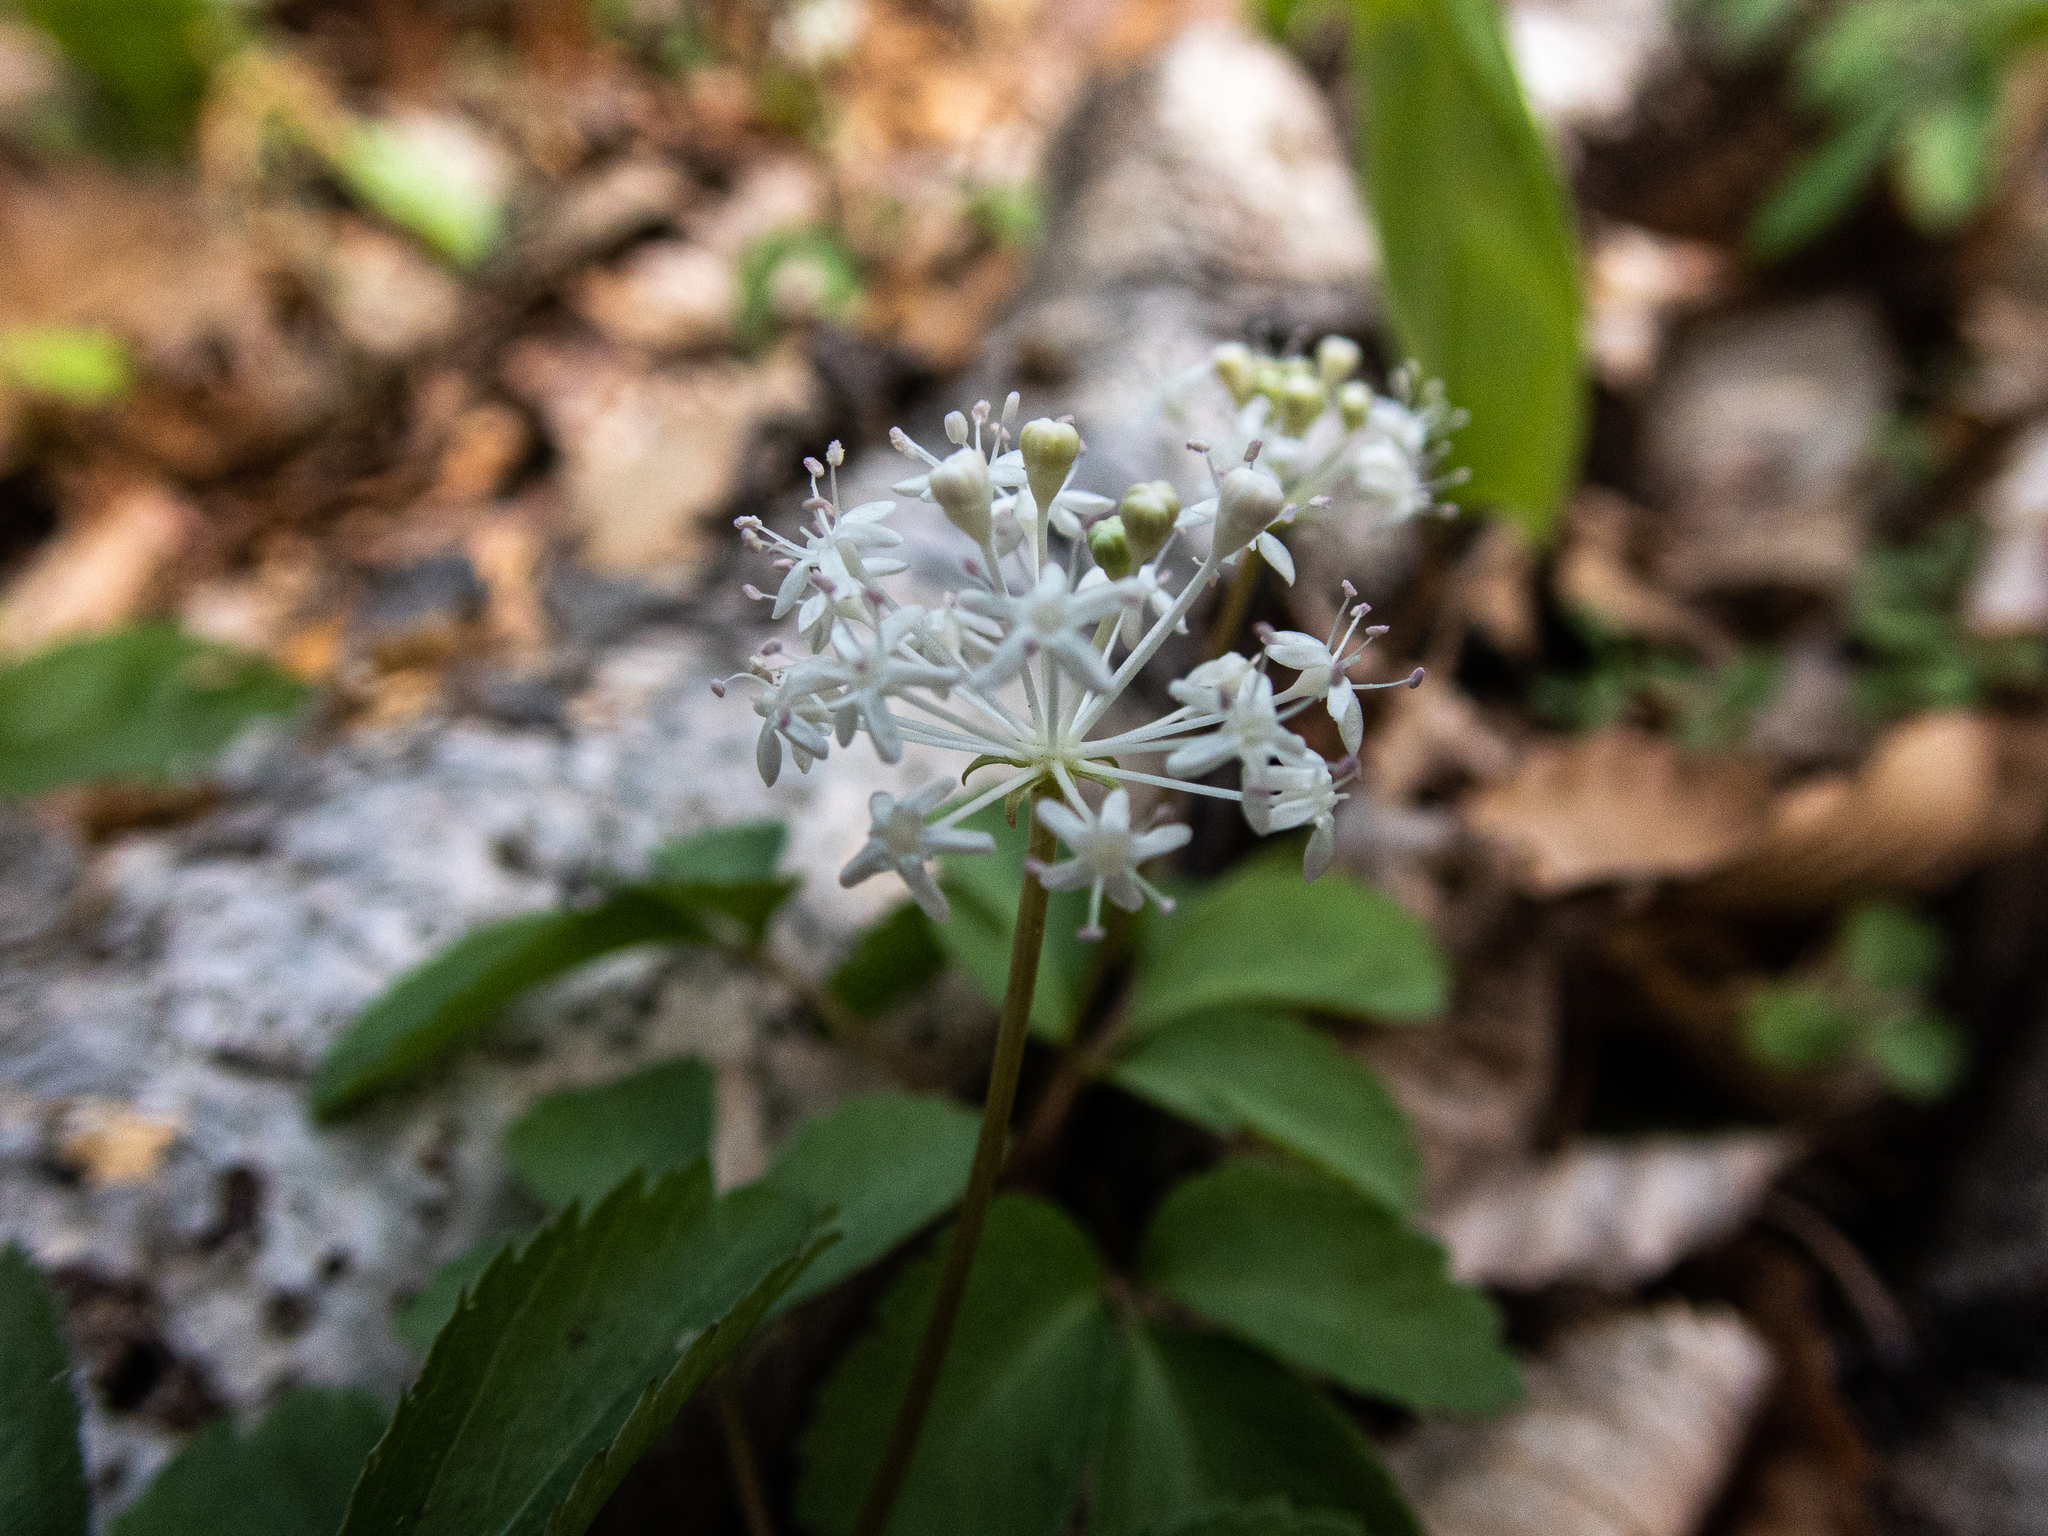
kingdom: Plantae
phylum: Tracheophyta
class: Magnoliopsida
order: Apiales
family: Araliaceae
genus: Panax
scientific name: Panax trifolius
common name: Dwarf ginseng
